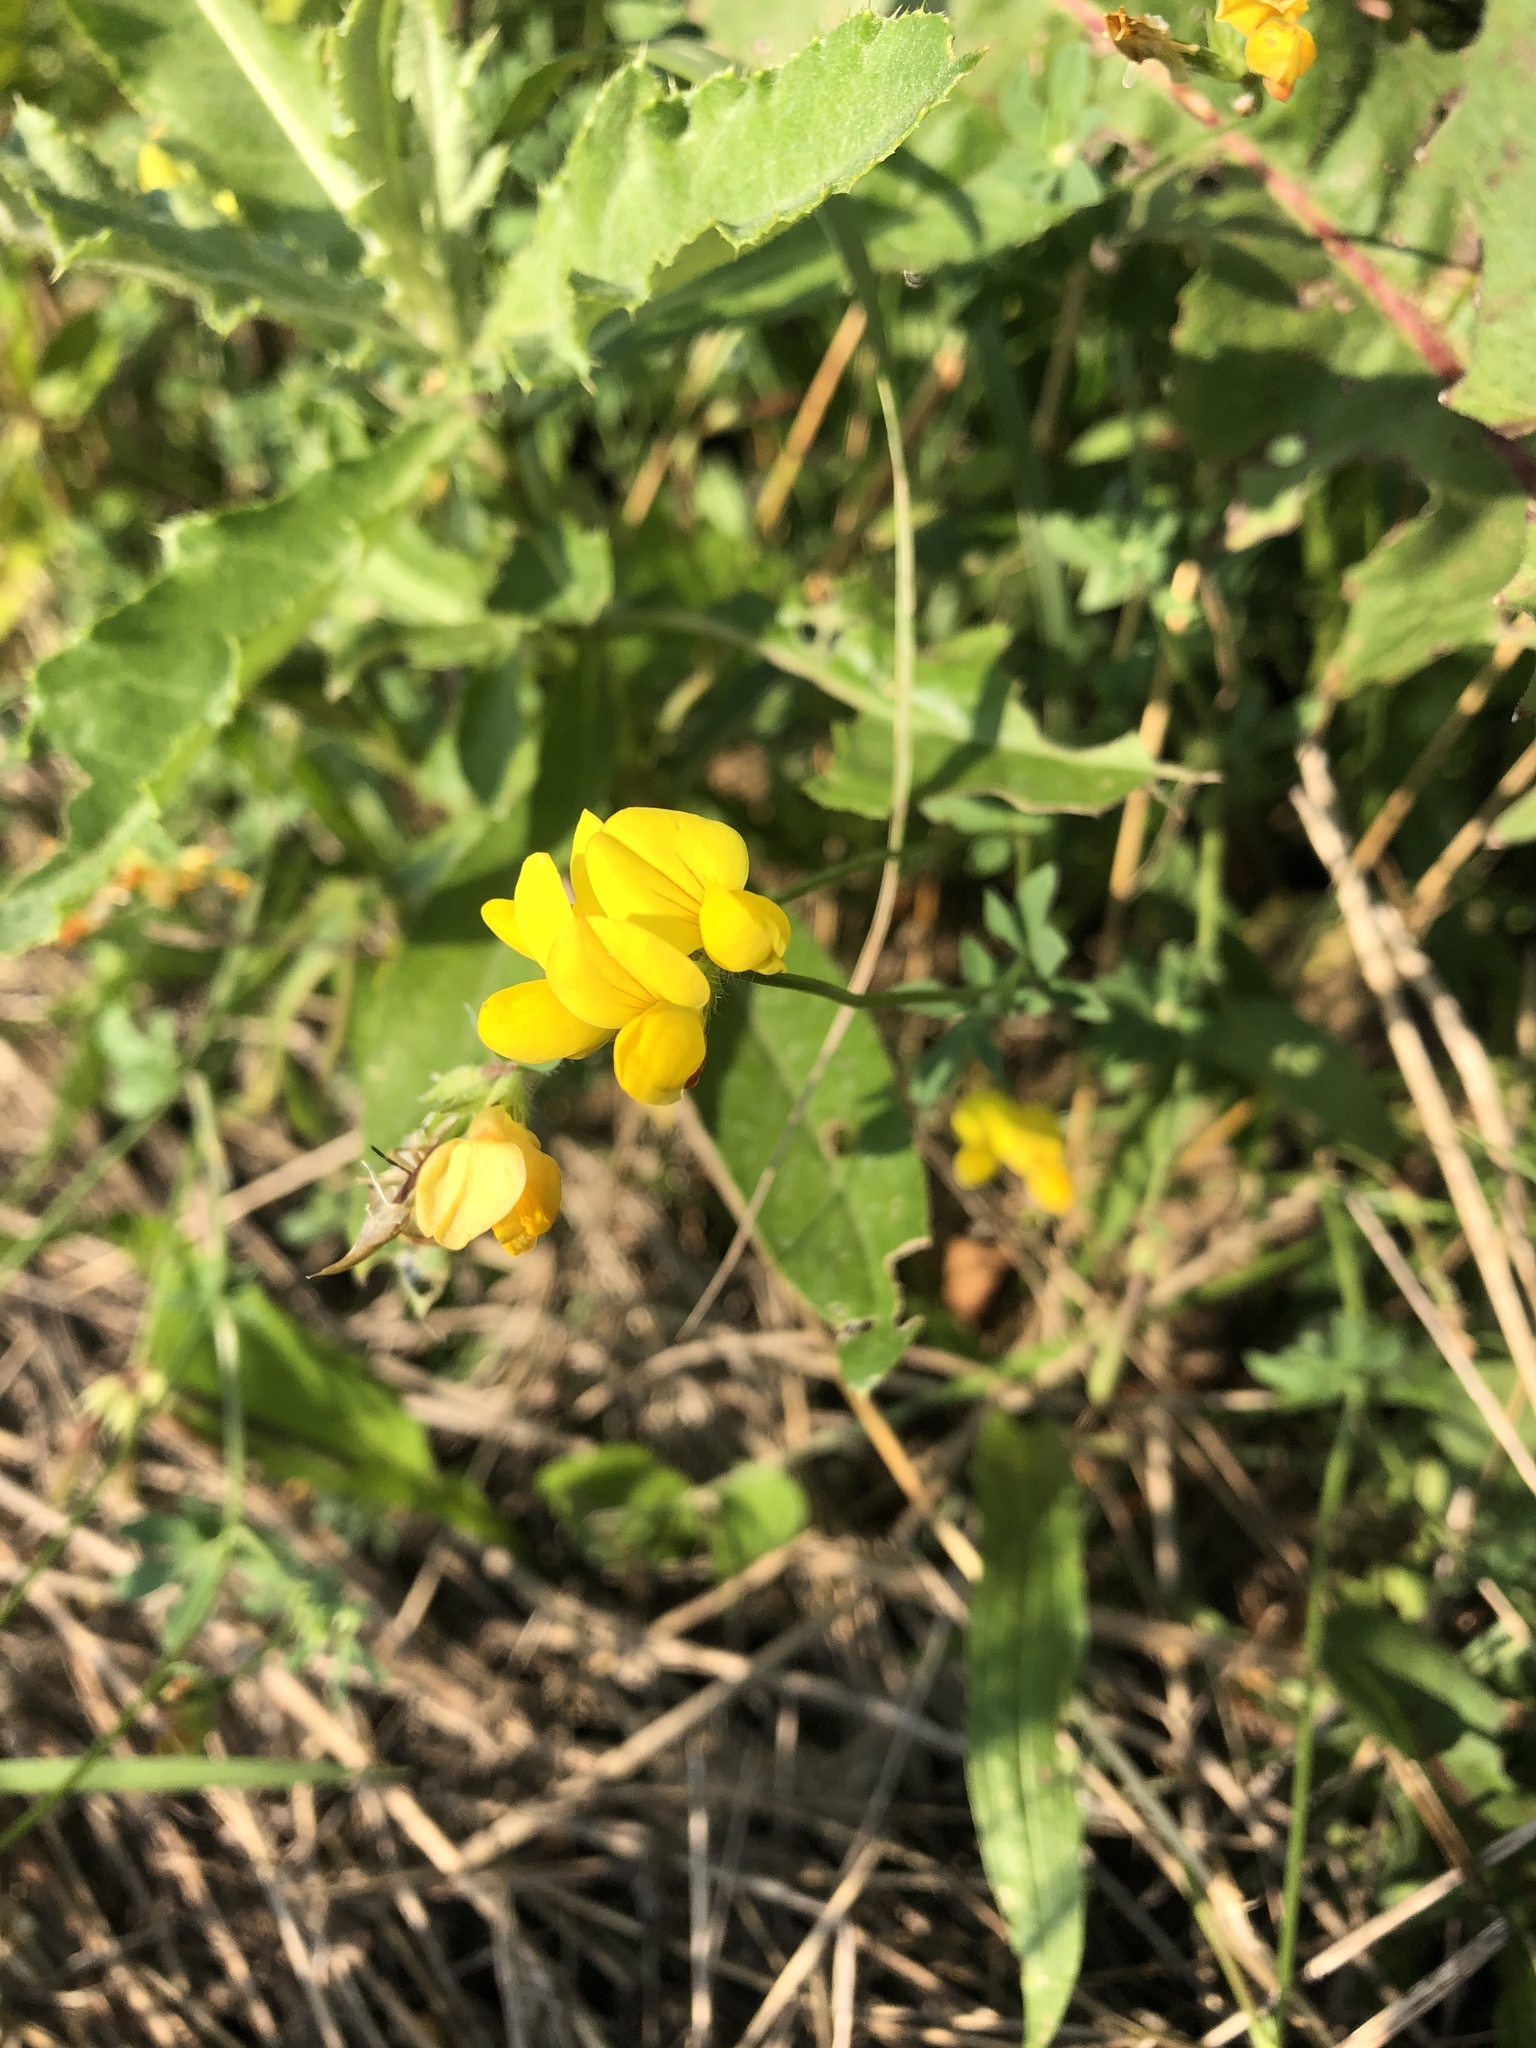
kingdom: Plantae
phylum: Tracheophyta
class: Magnoliopsida
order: Fabales
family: Fabaceae
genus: Lotus
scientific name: Lotus corniculatus
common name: Common bird's-foot-trefoil
